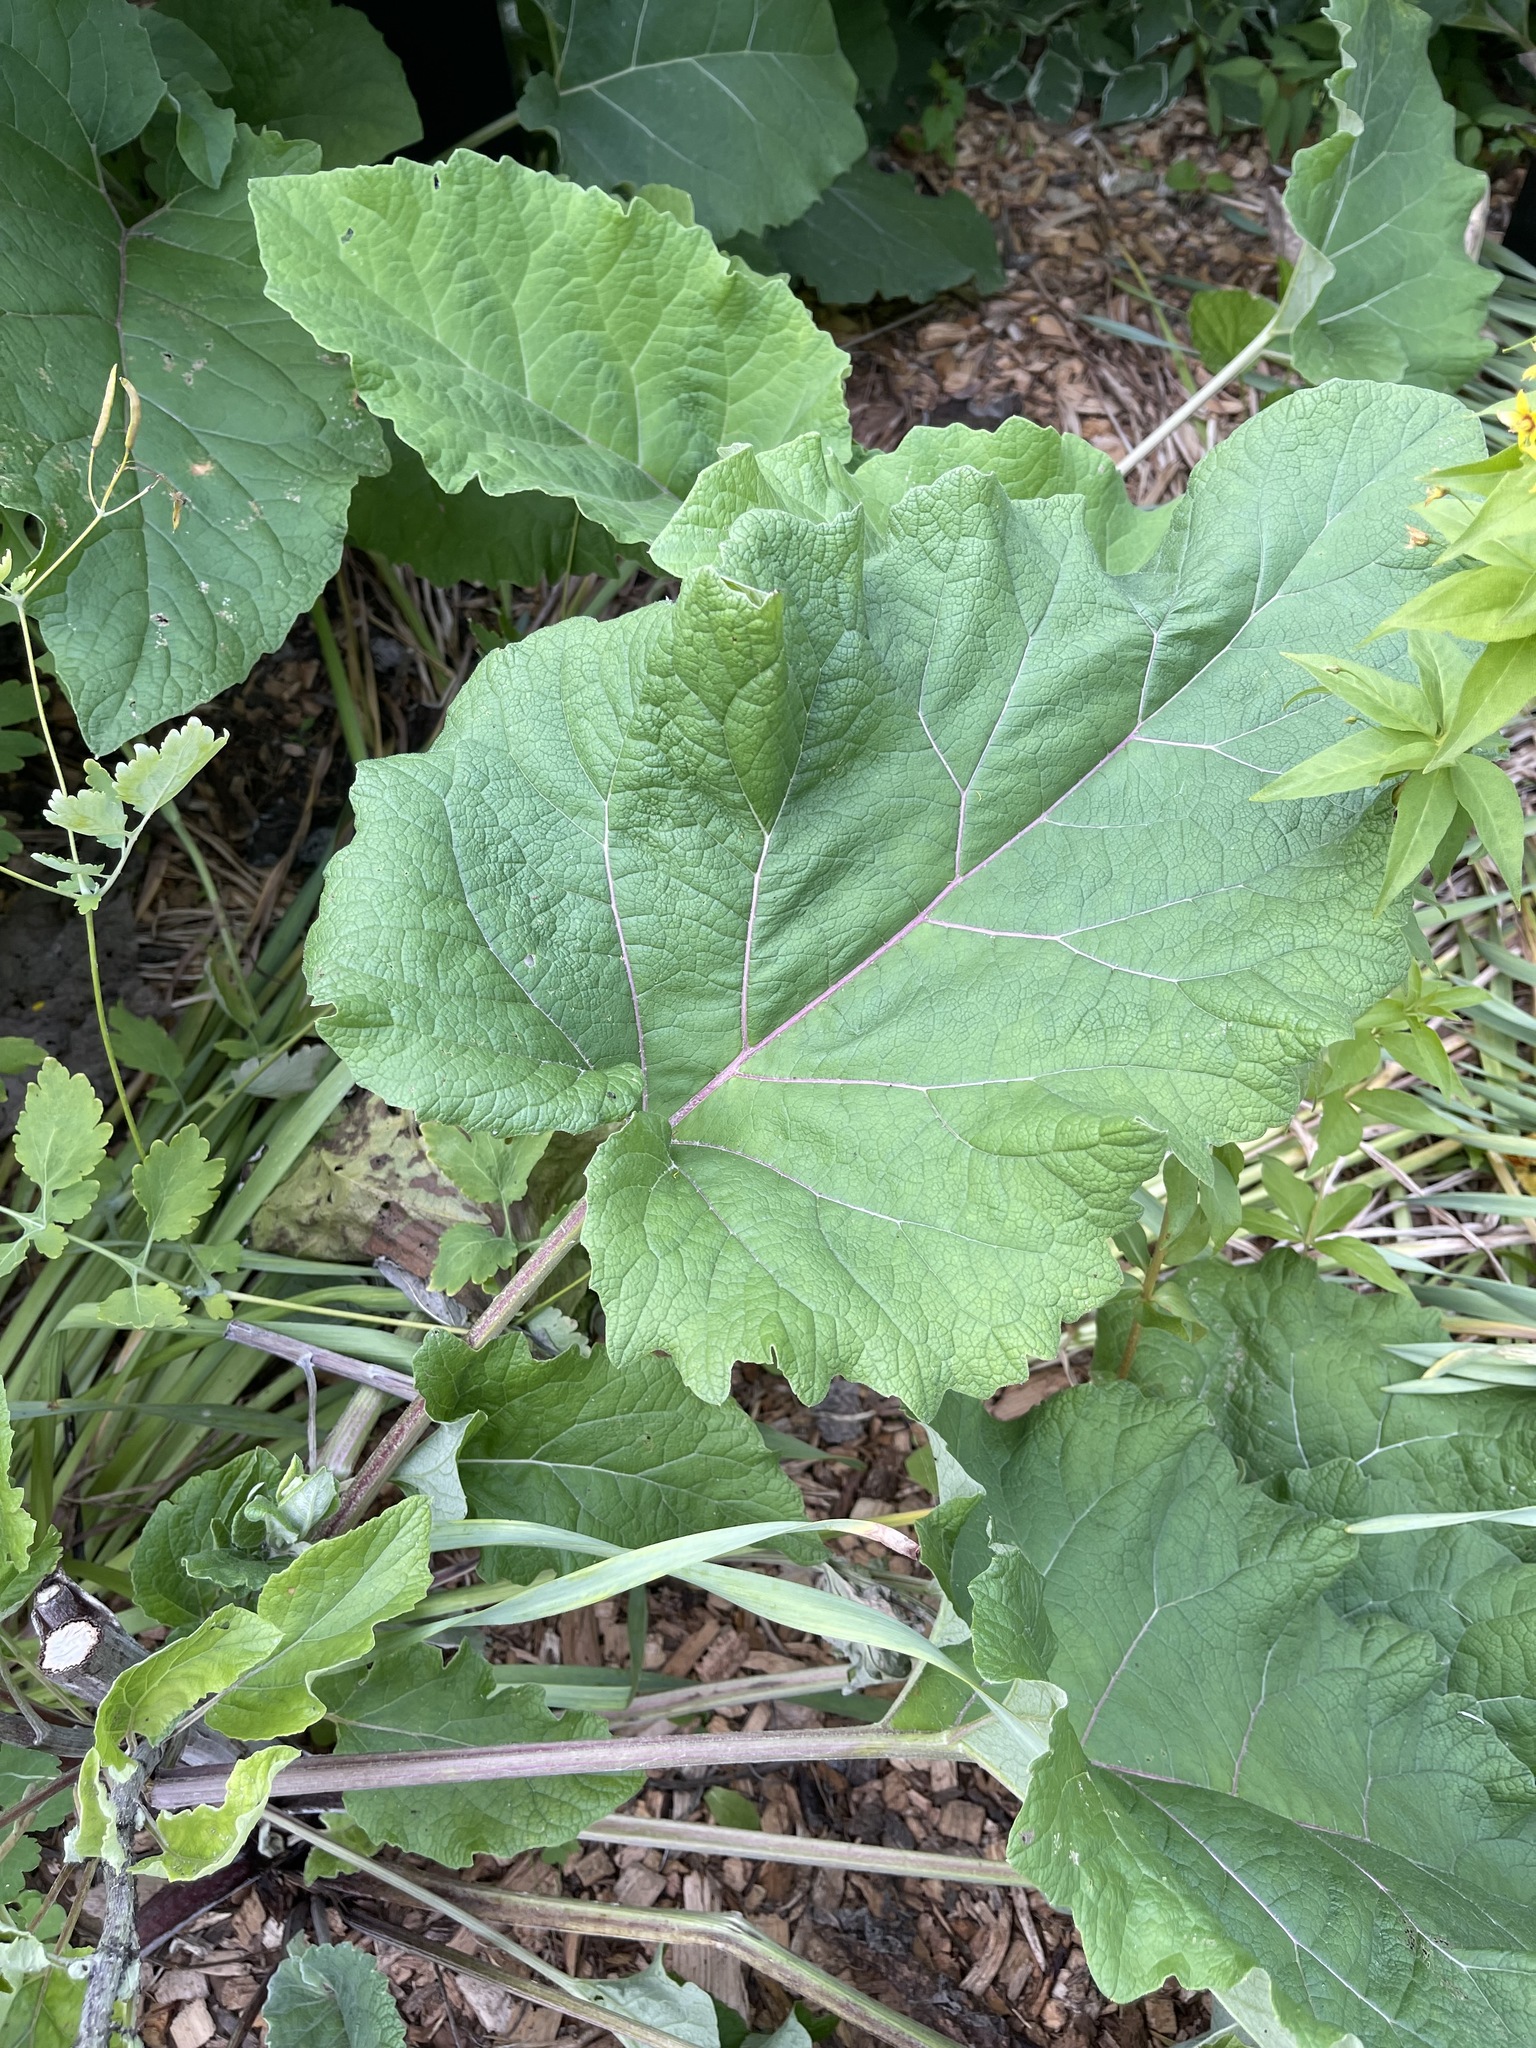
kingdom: Plantae
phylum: Tracheophyta
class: Magnoliopsida
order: Asterales
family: Asteraceae
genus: Arctium
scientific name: Arctium
